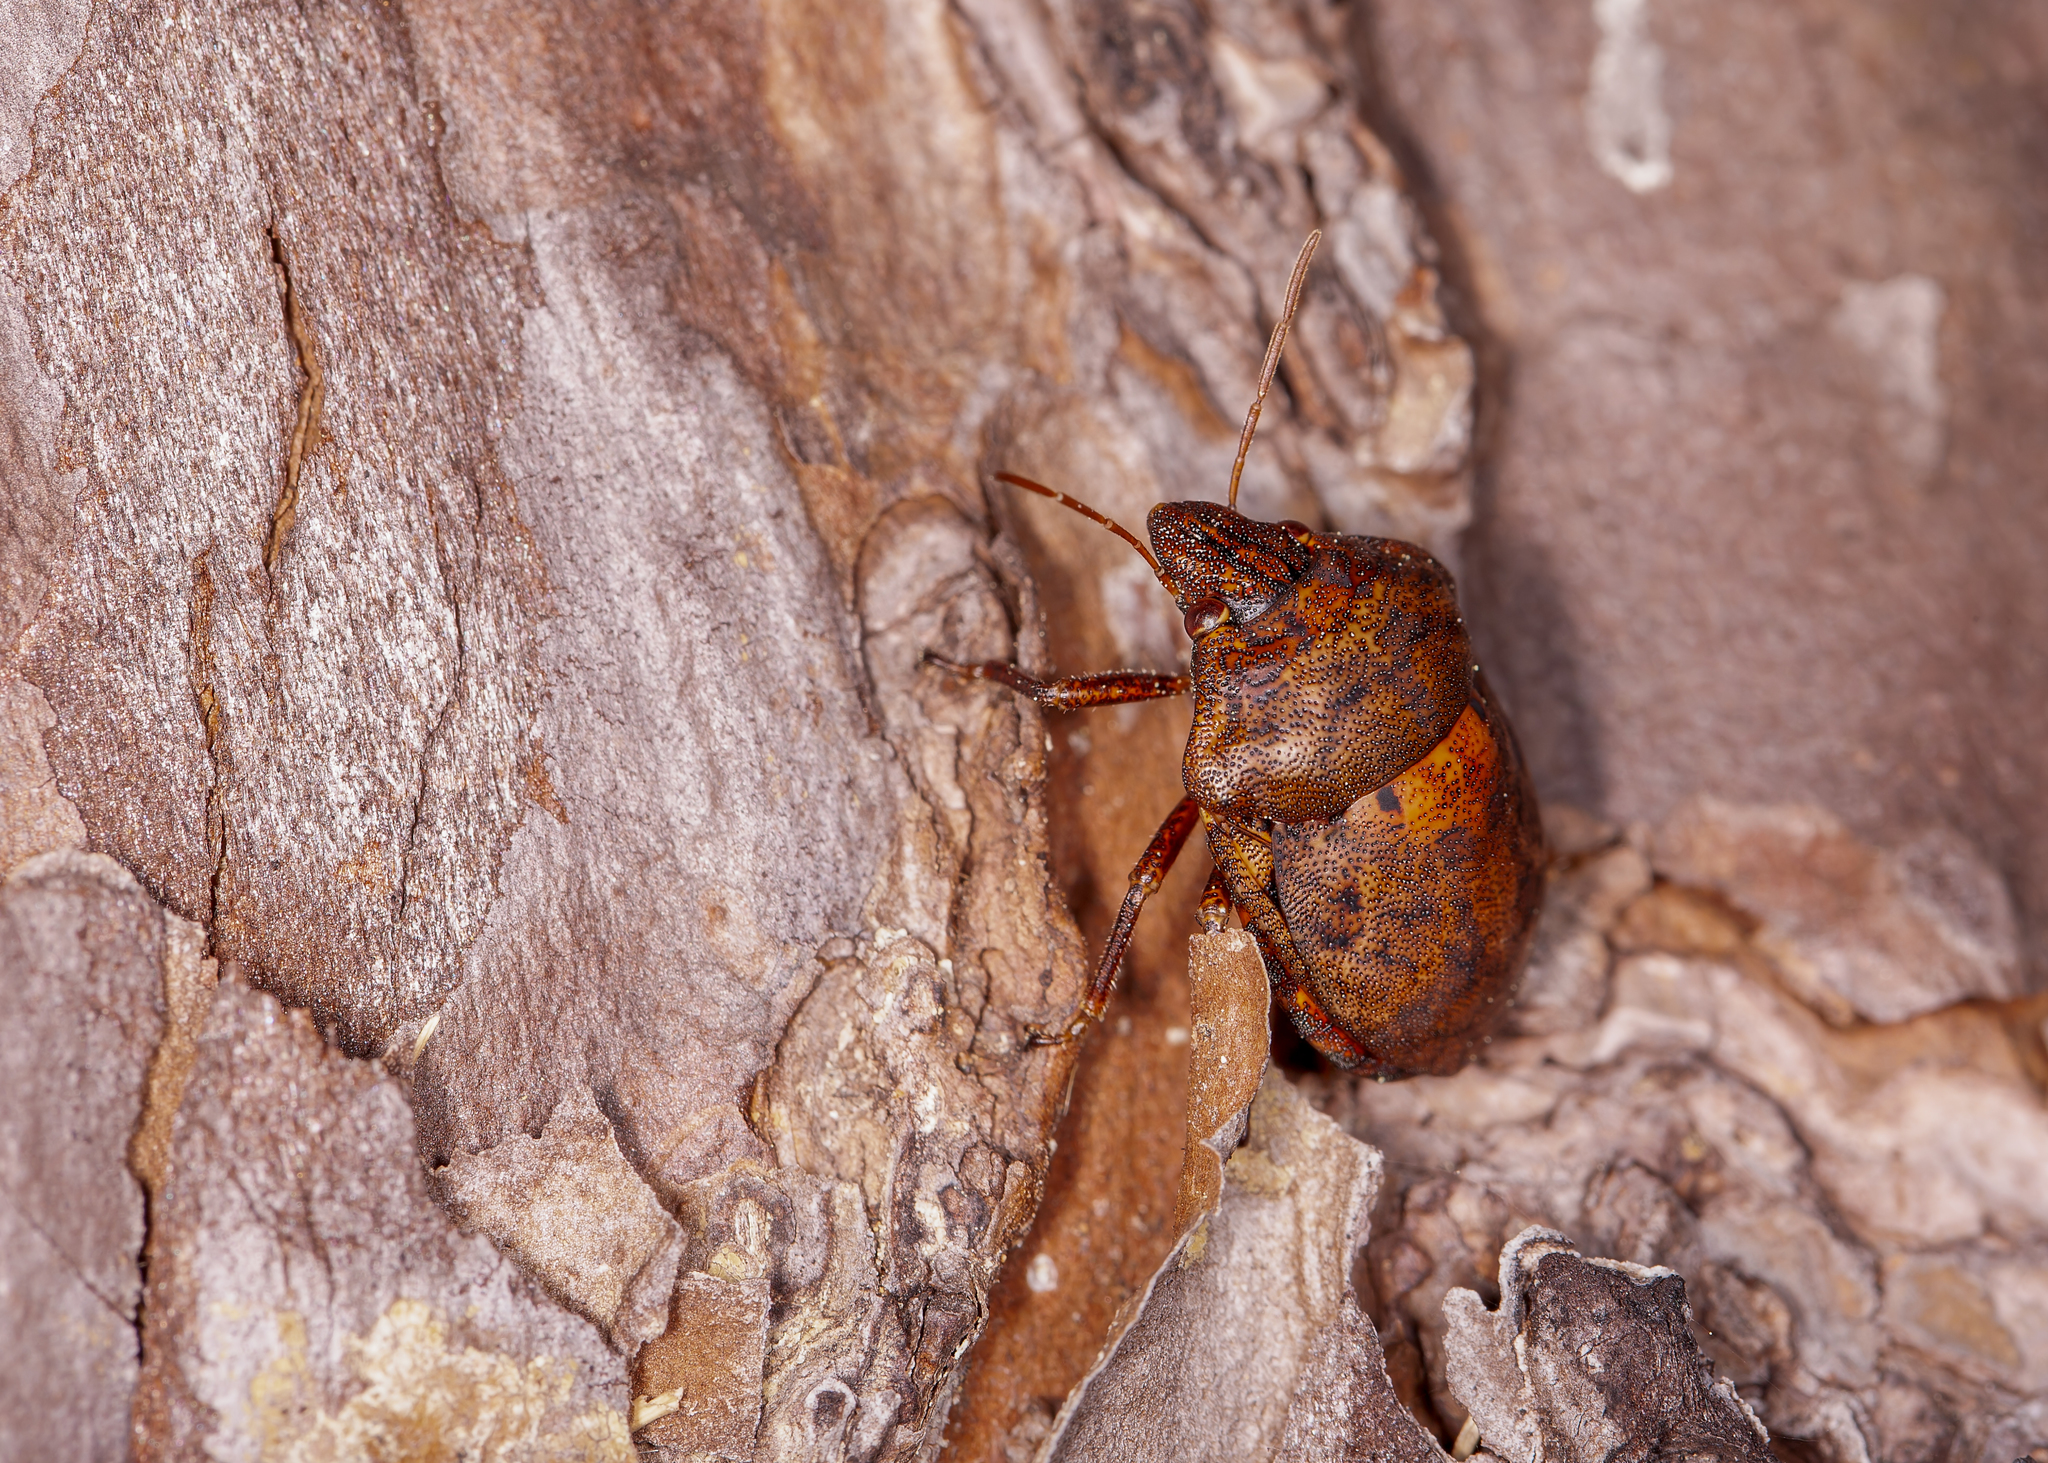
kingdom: Animalia
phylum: Arthropoda
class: Insecta
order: Hemiptera
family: Scutelleridae
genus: Tetyra
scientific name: Tetyra bipunctata
